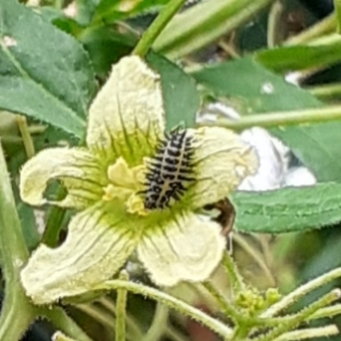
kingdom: Animalia
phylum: Arthropoda
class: Insecta
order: Coleoptera
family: Coccinellidae
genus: Henosepilachna
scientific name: Henosepilachna argus
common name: Bryony ladybird
